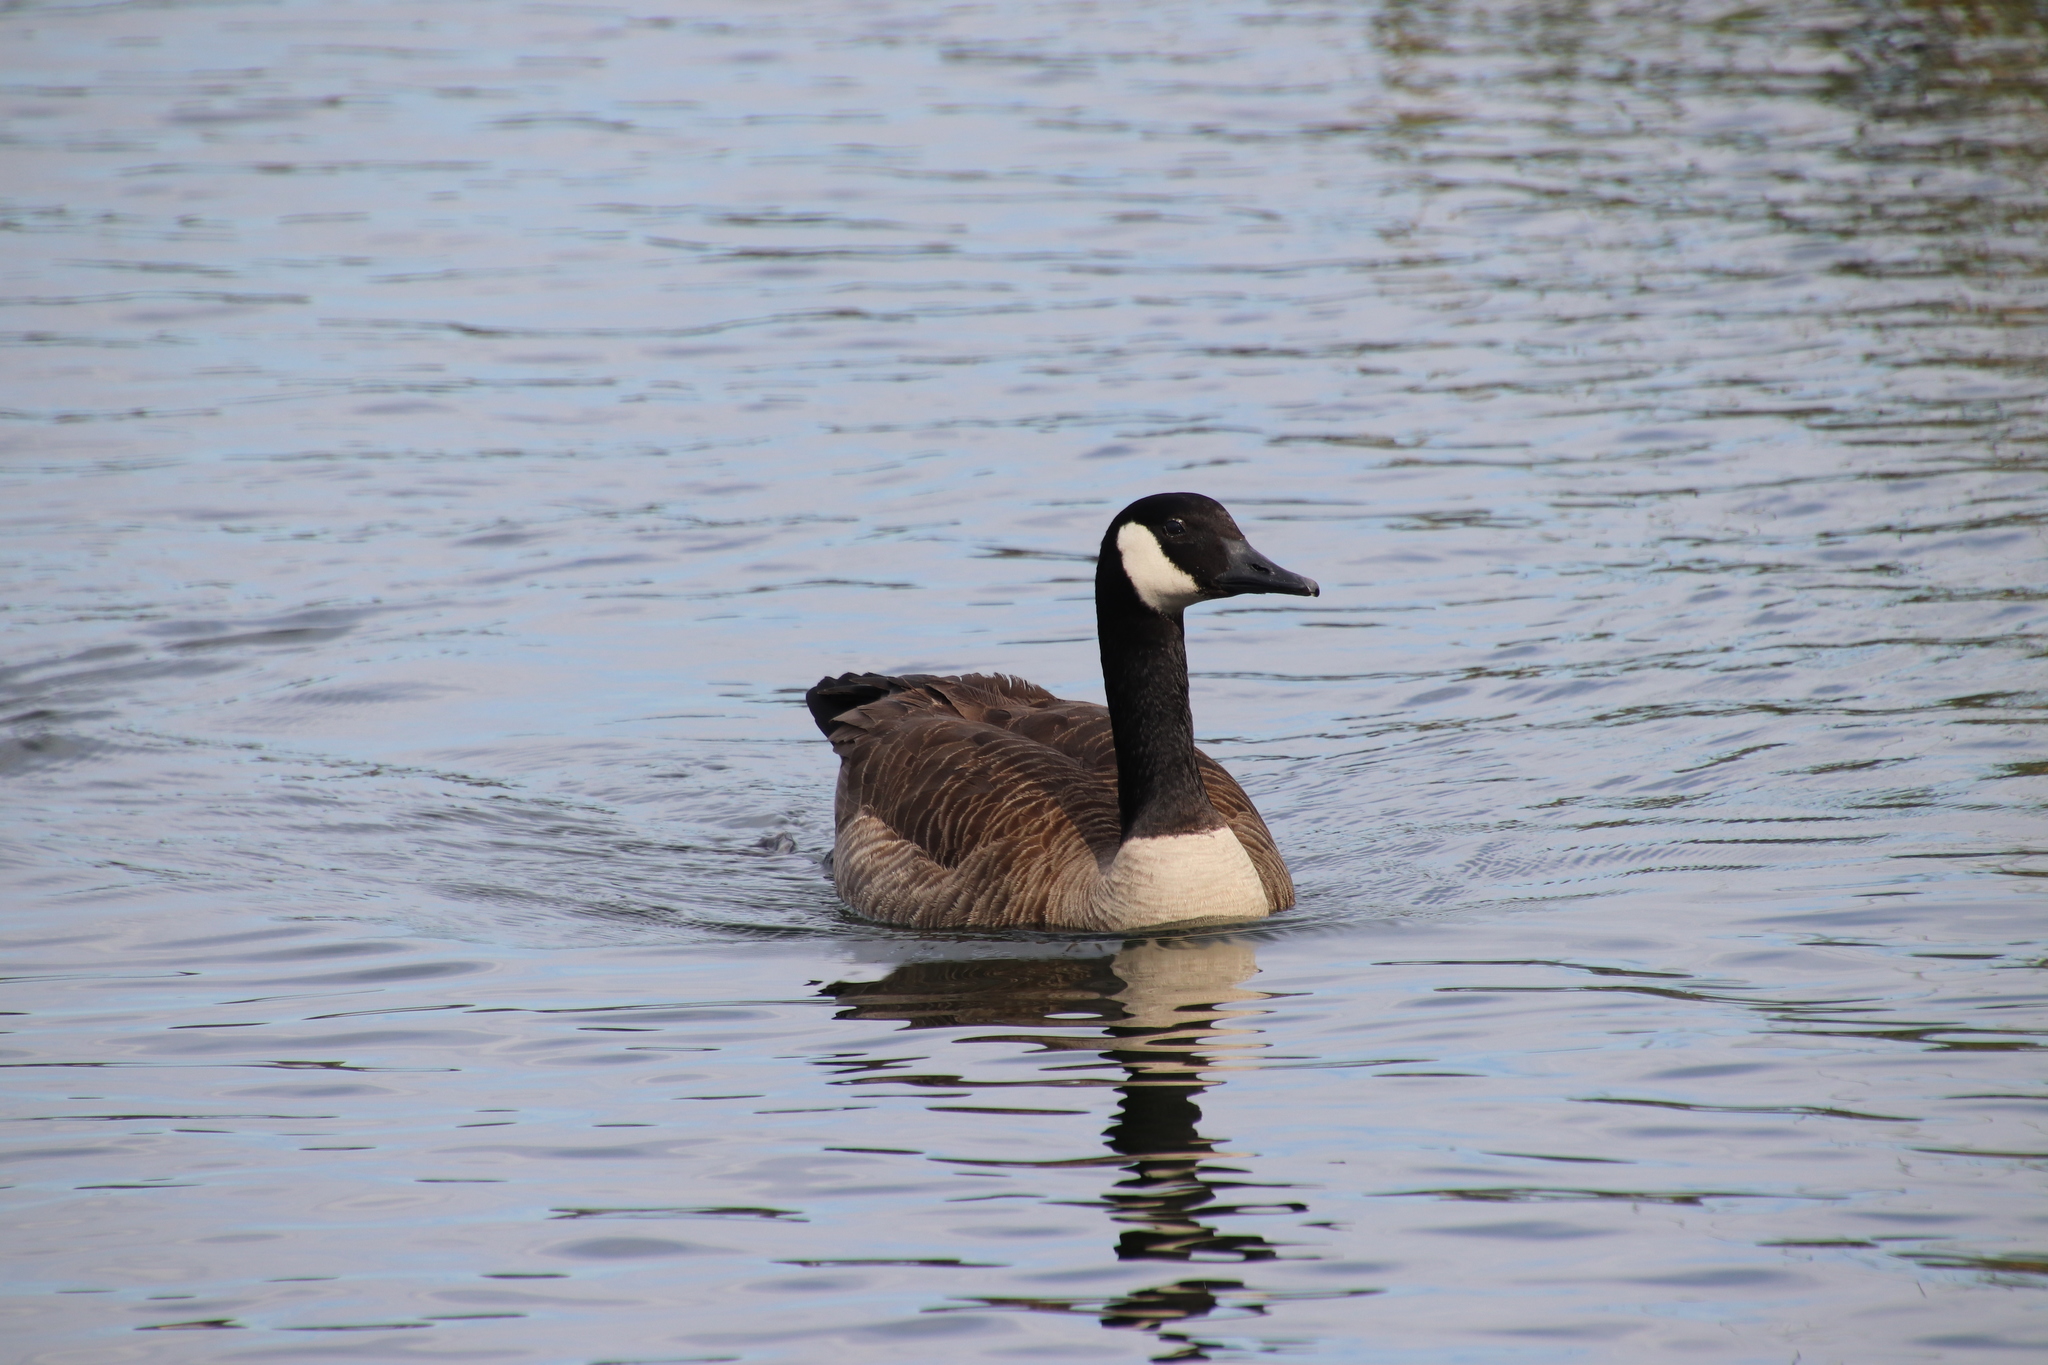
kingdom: Animalia
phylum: Chordata
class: Aves
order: Anseriformes
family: Anatidae
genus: Branta
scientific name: Branta canadensis
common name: Canada goose
